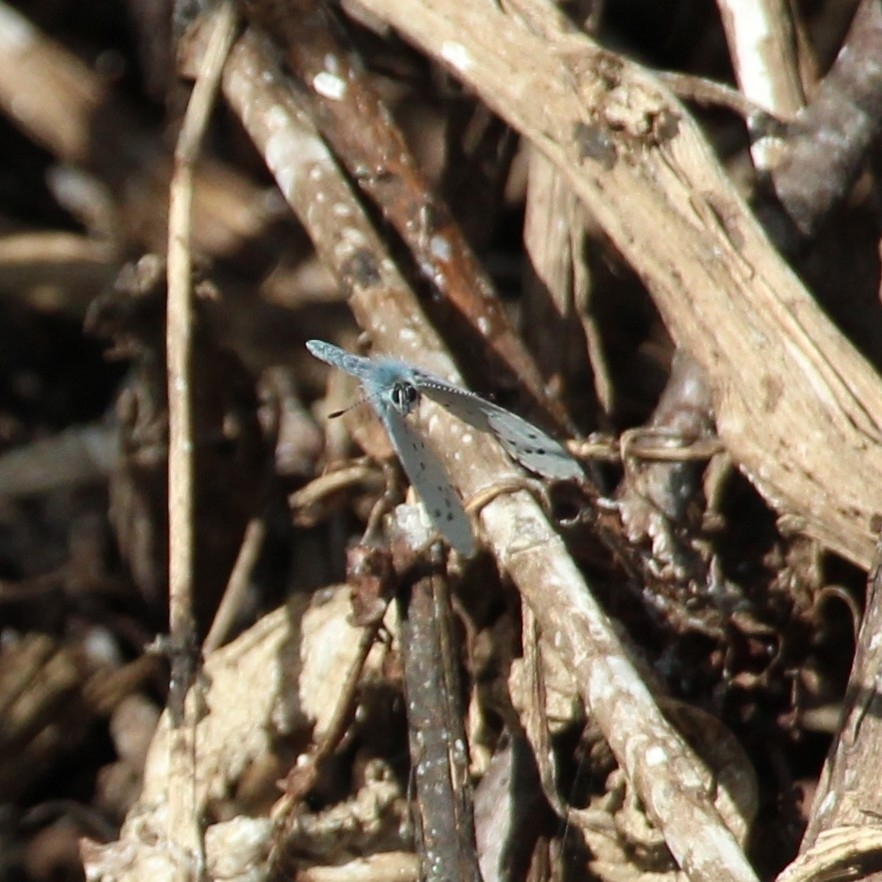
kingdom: Animalia
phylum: Arthropoda
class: Insecta
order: Lepidoptera
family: Lycaenidae
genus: Celastrina
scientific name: Celastrina argiolus
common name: Holly blue
